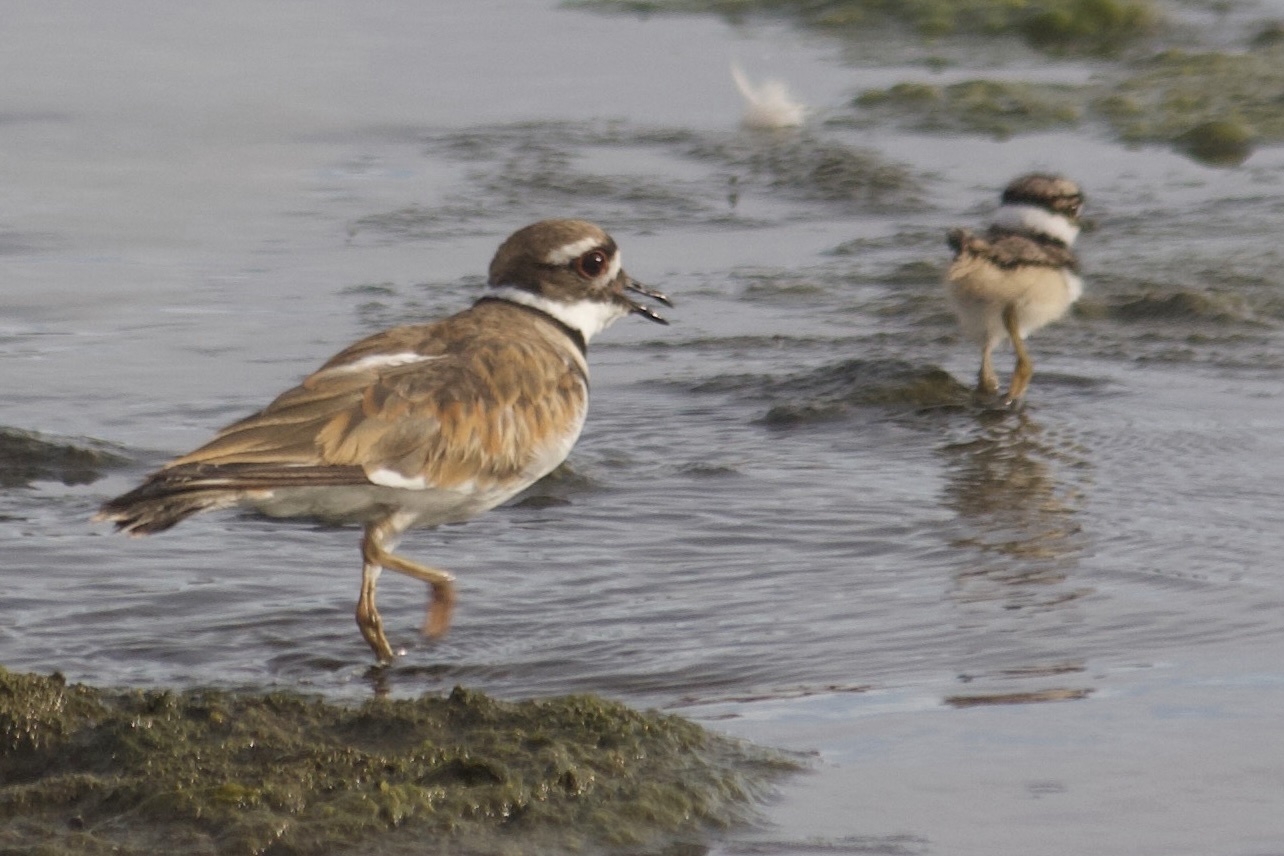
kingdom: Animalia
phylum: Chordata
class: Aves
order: Charadriiformes
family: Charadriidae
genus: Charadrius
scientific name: Charadrius vociferus
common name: Killdeer
